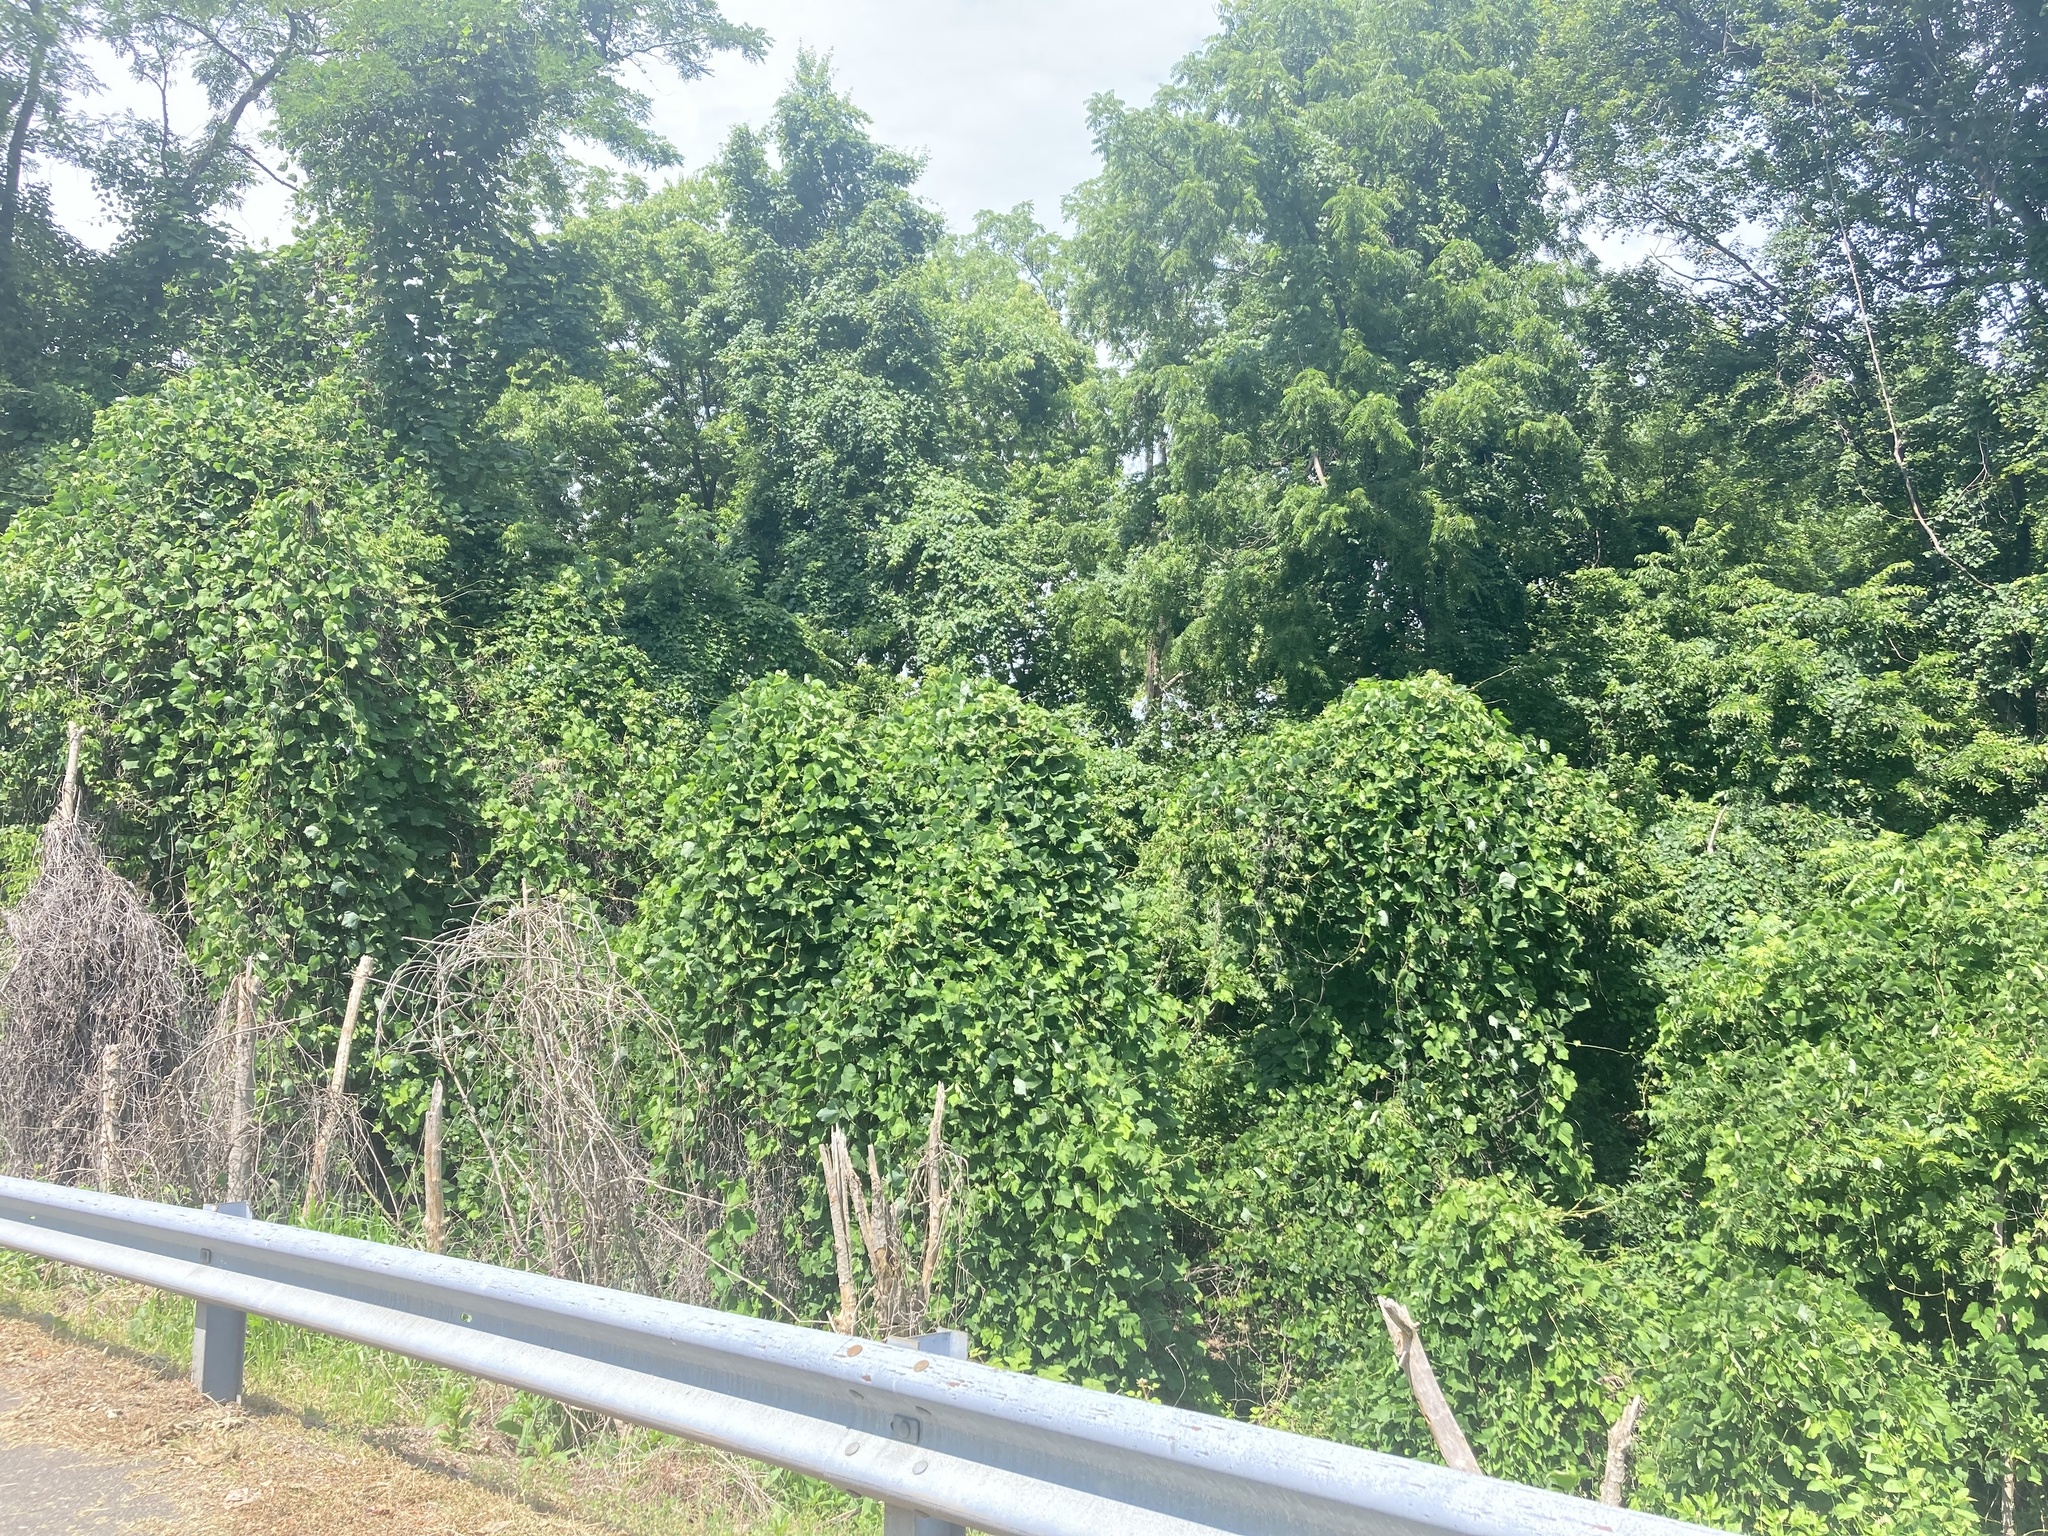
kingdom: Plantae
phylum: Tracheophyta
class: Magnoliopsida
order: Fabales
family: Fabaceae
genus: Pueraria
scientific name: Pueraria montana
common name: Kudzu
